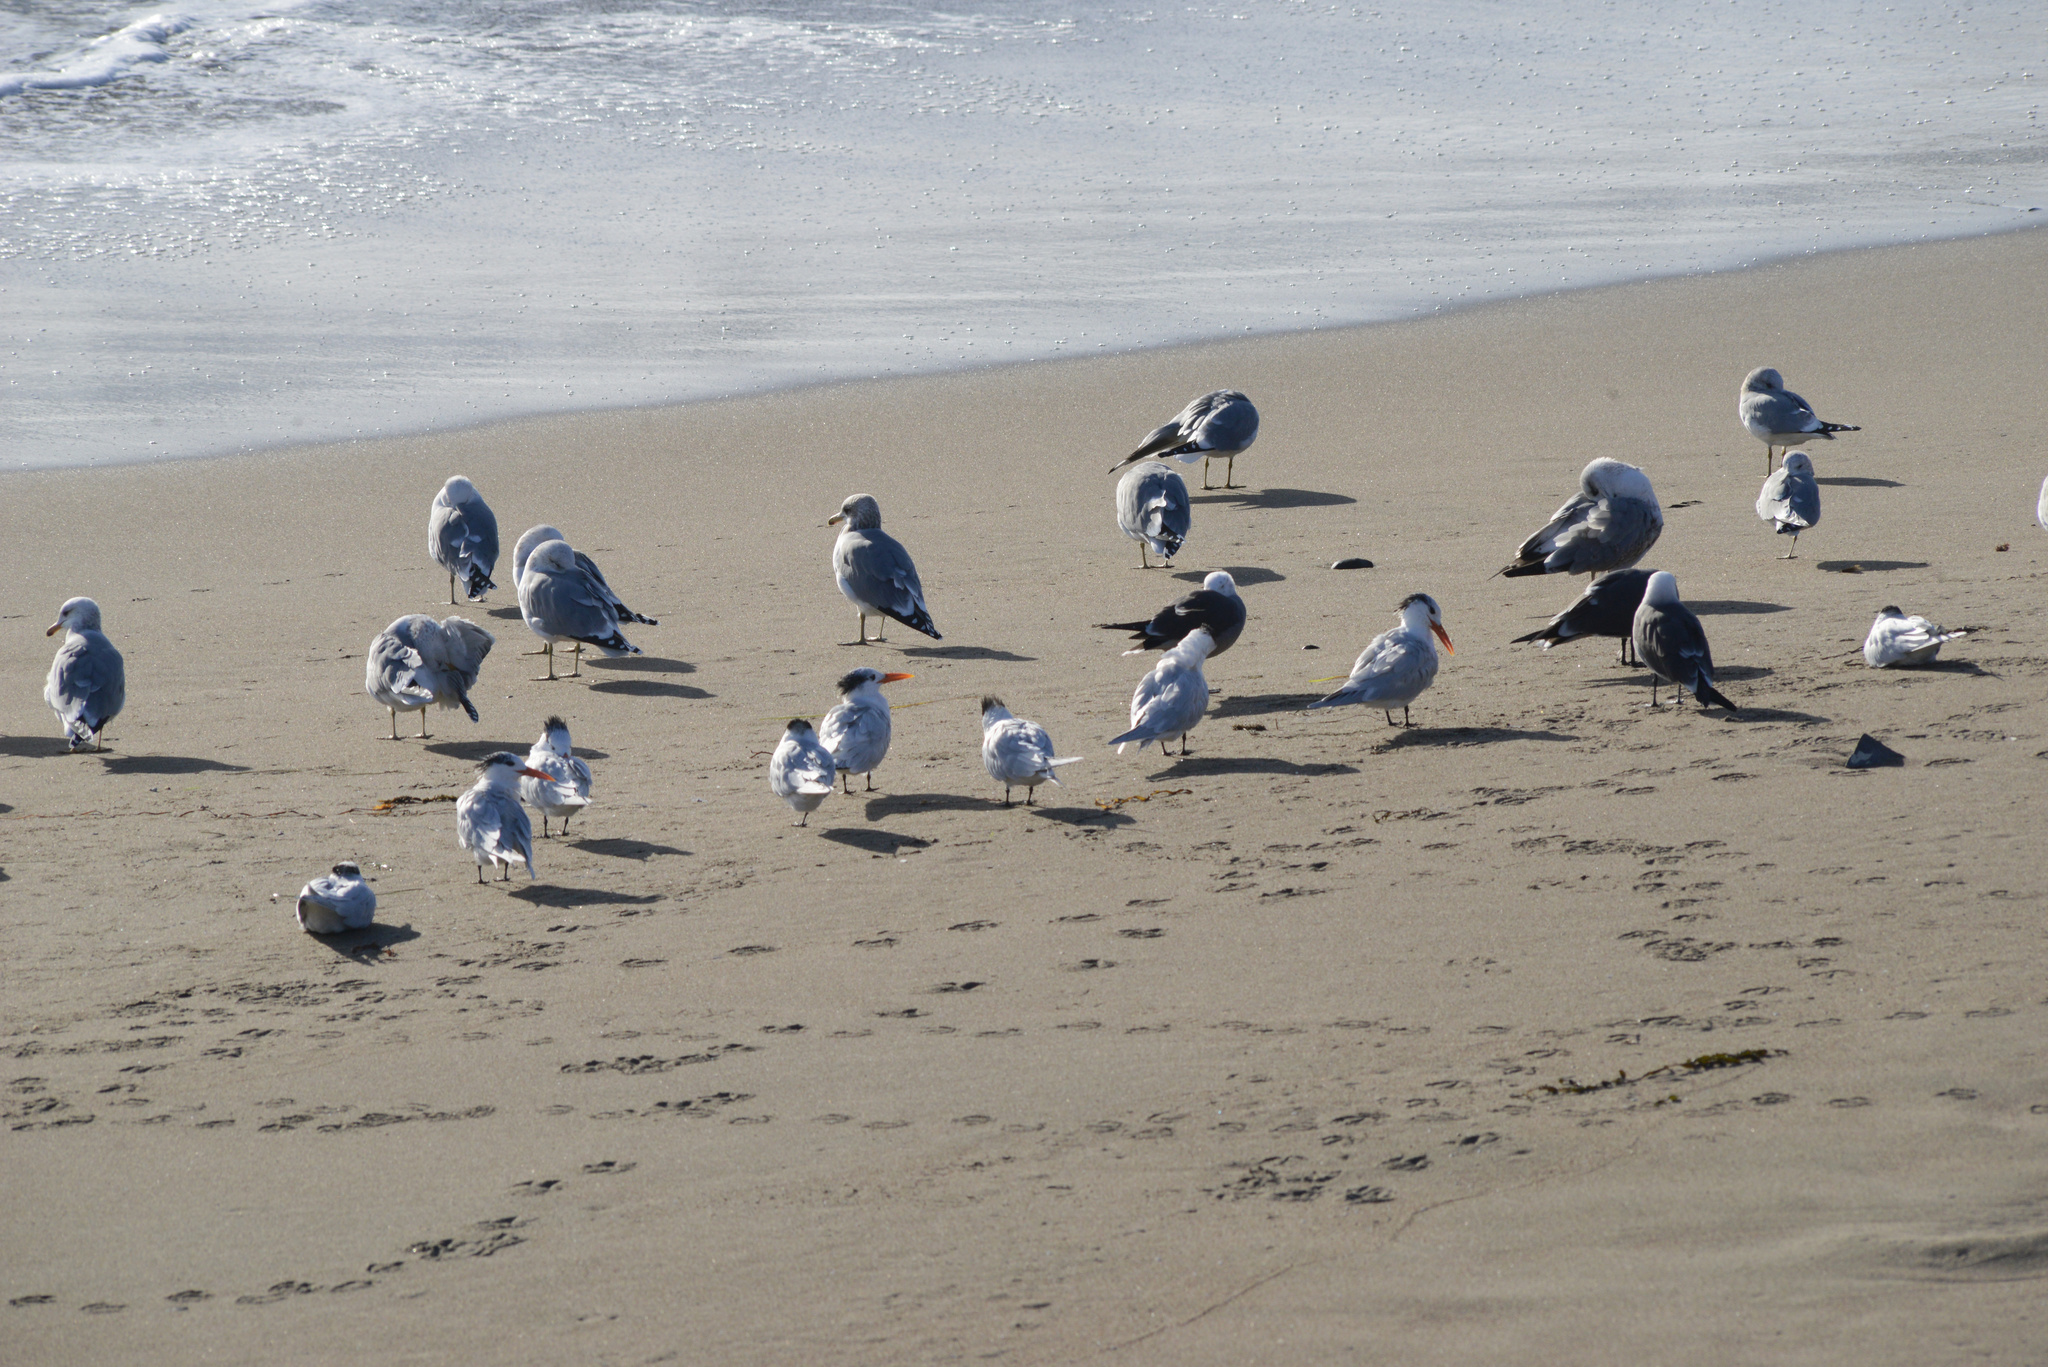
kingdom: Animalia
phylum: Chordata
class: Aves
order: Charadriiformes
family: Laridae
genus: Larus
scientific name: Larus californicus
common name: California gull
